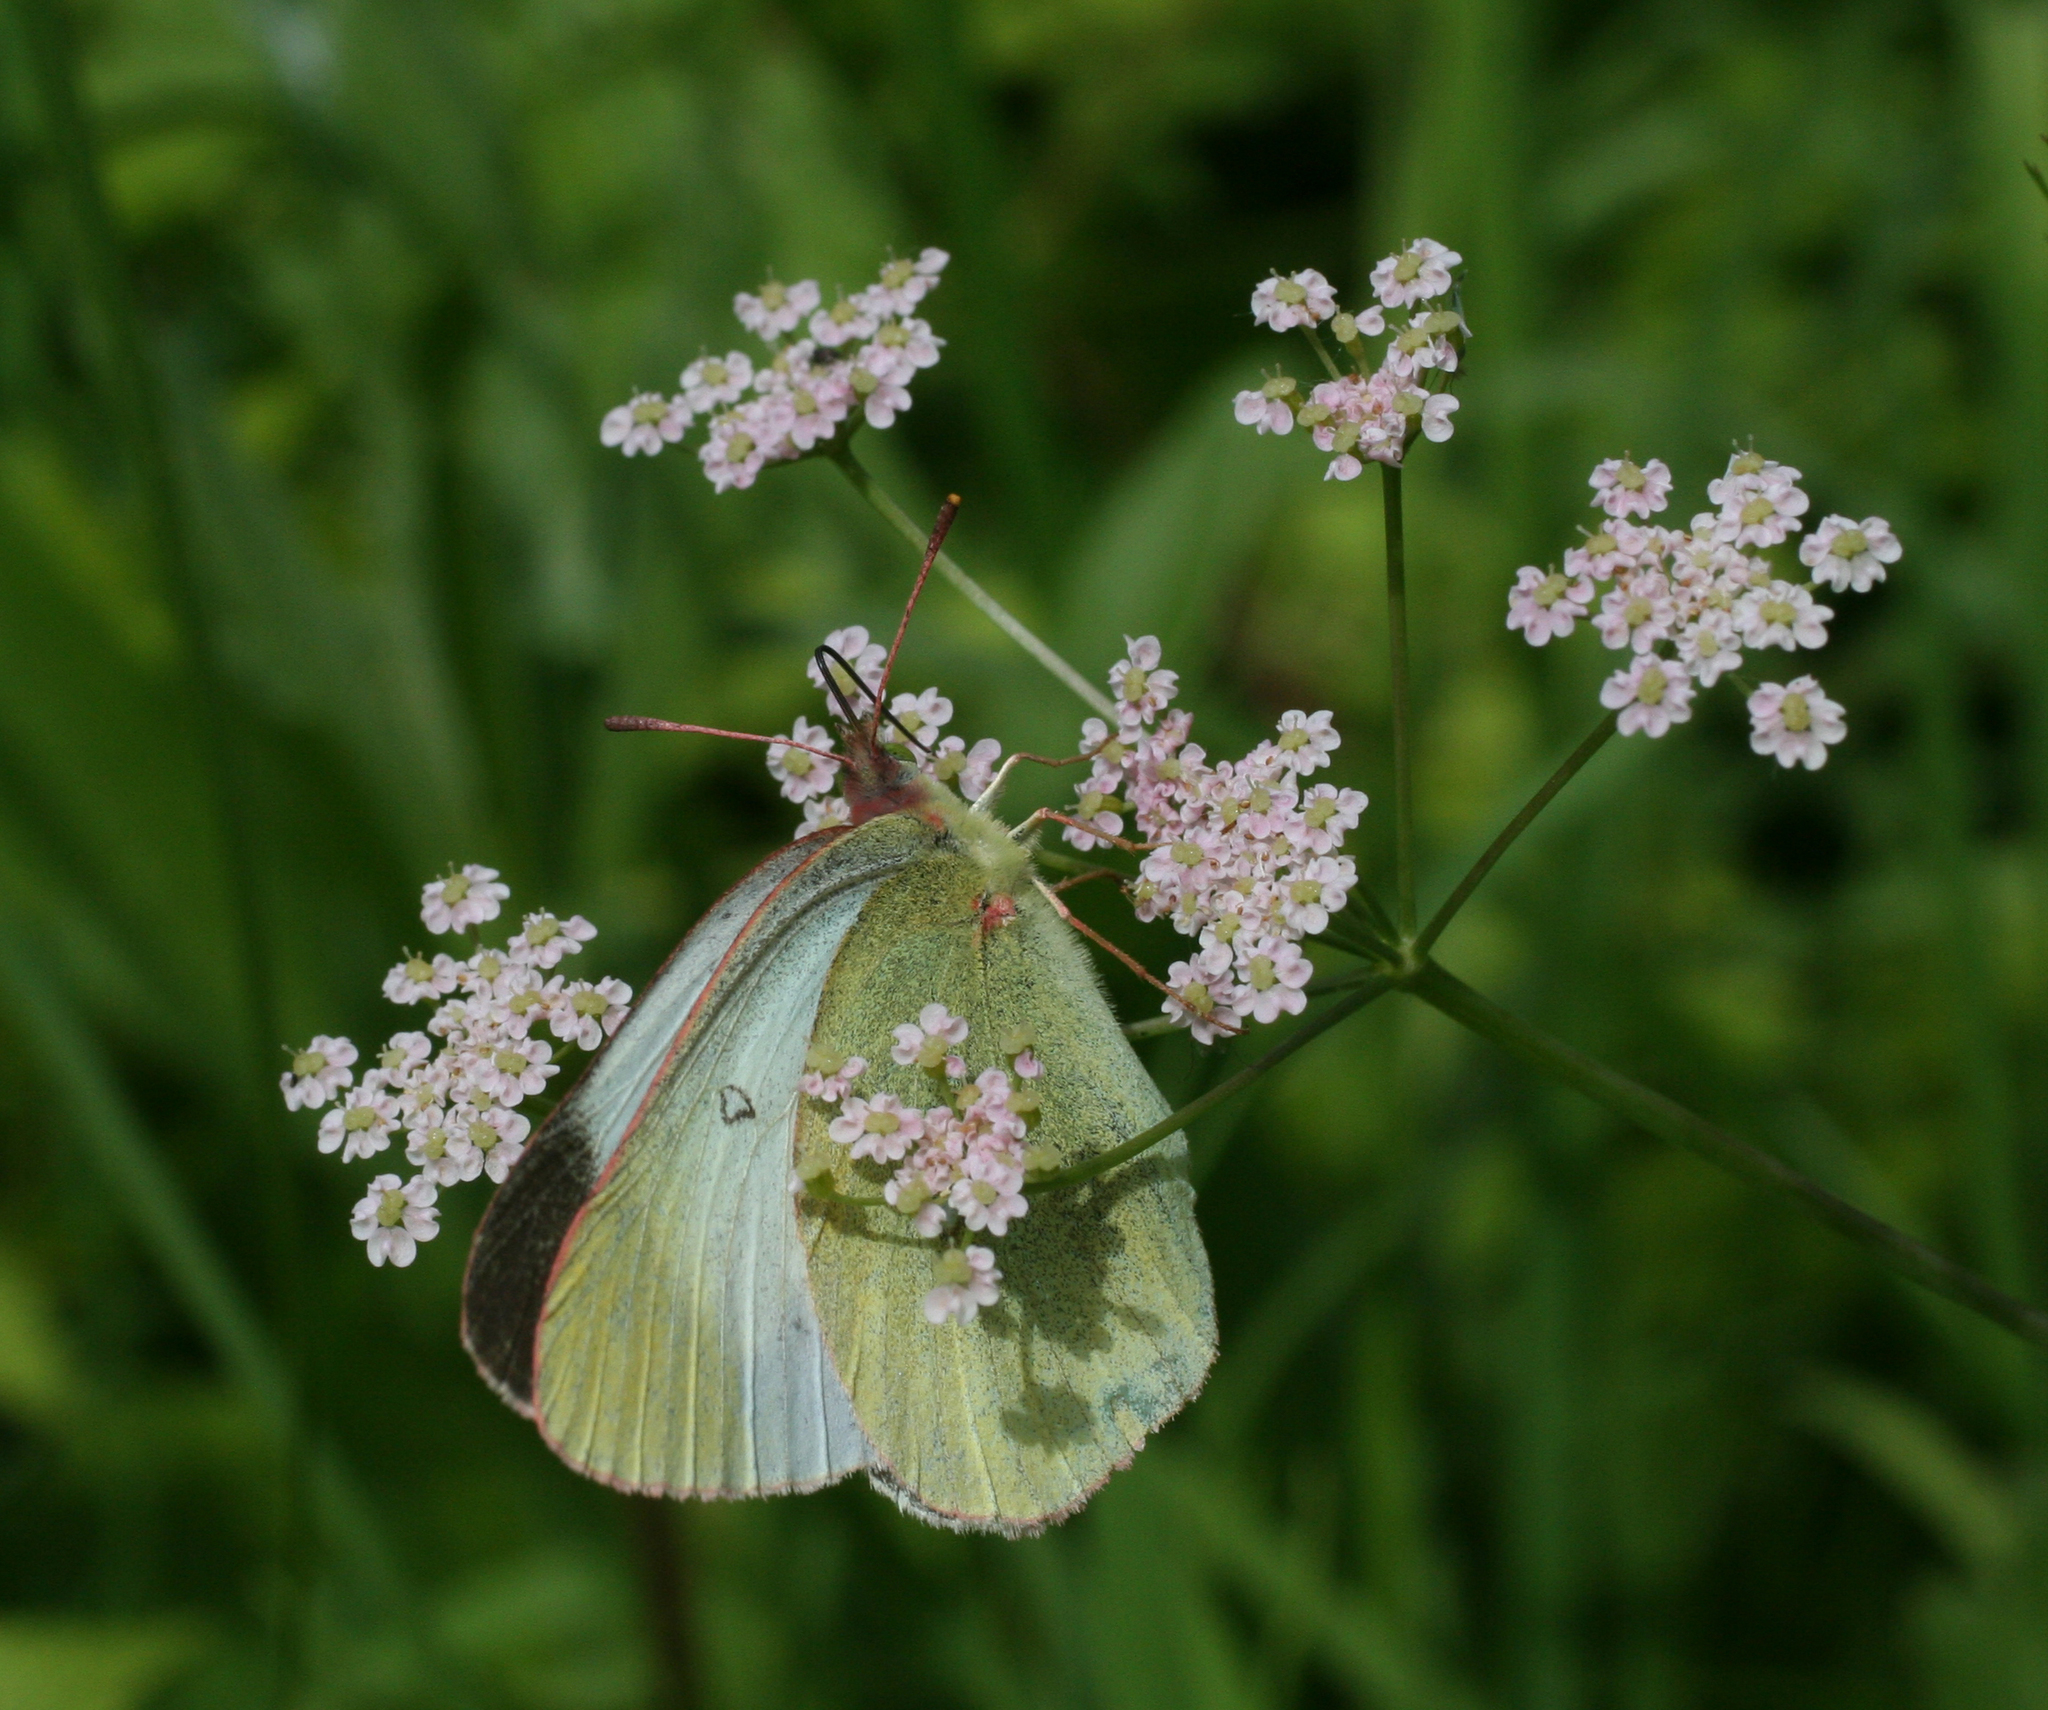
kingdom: Plantae
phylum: Tracheophyta
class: Magnoliopsida
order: Apiales
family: Apiaceae
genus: Carum
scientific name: Carum carvi
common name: Caraway
